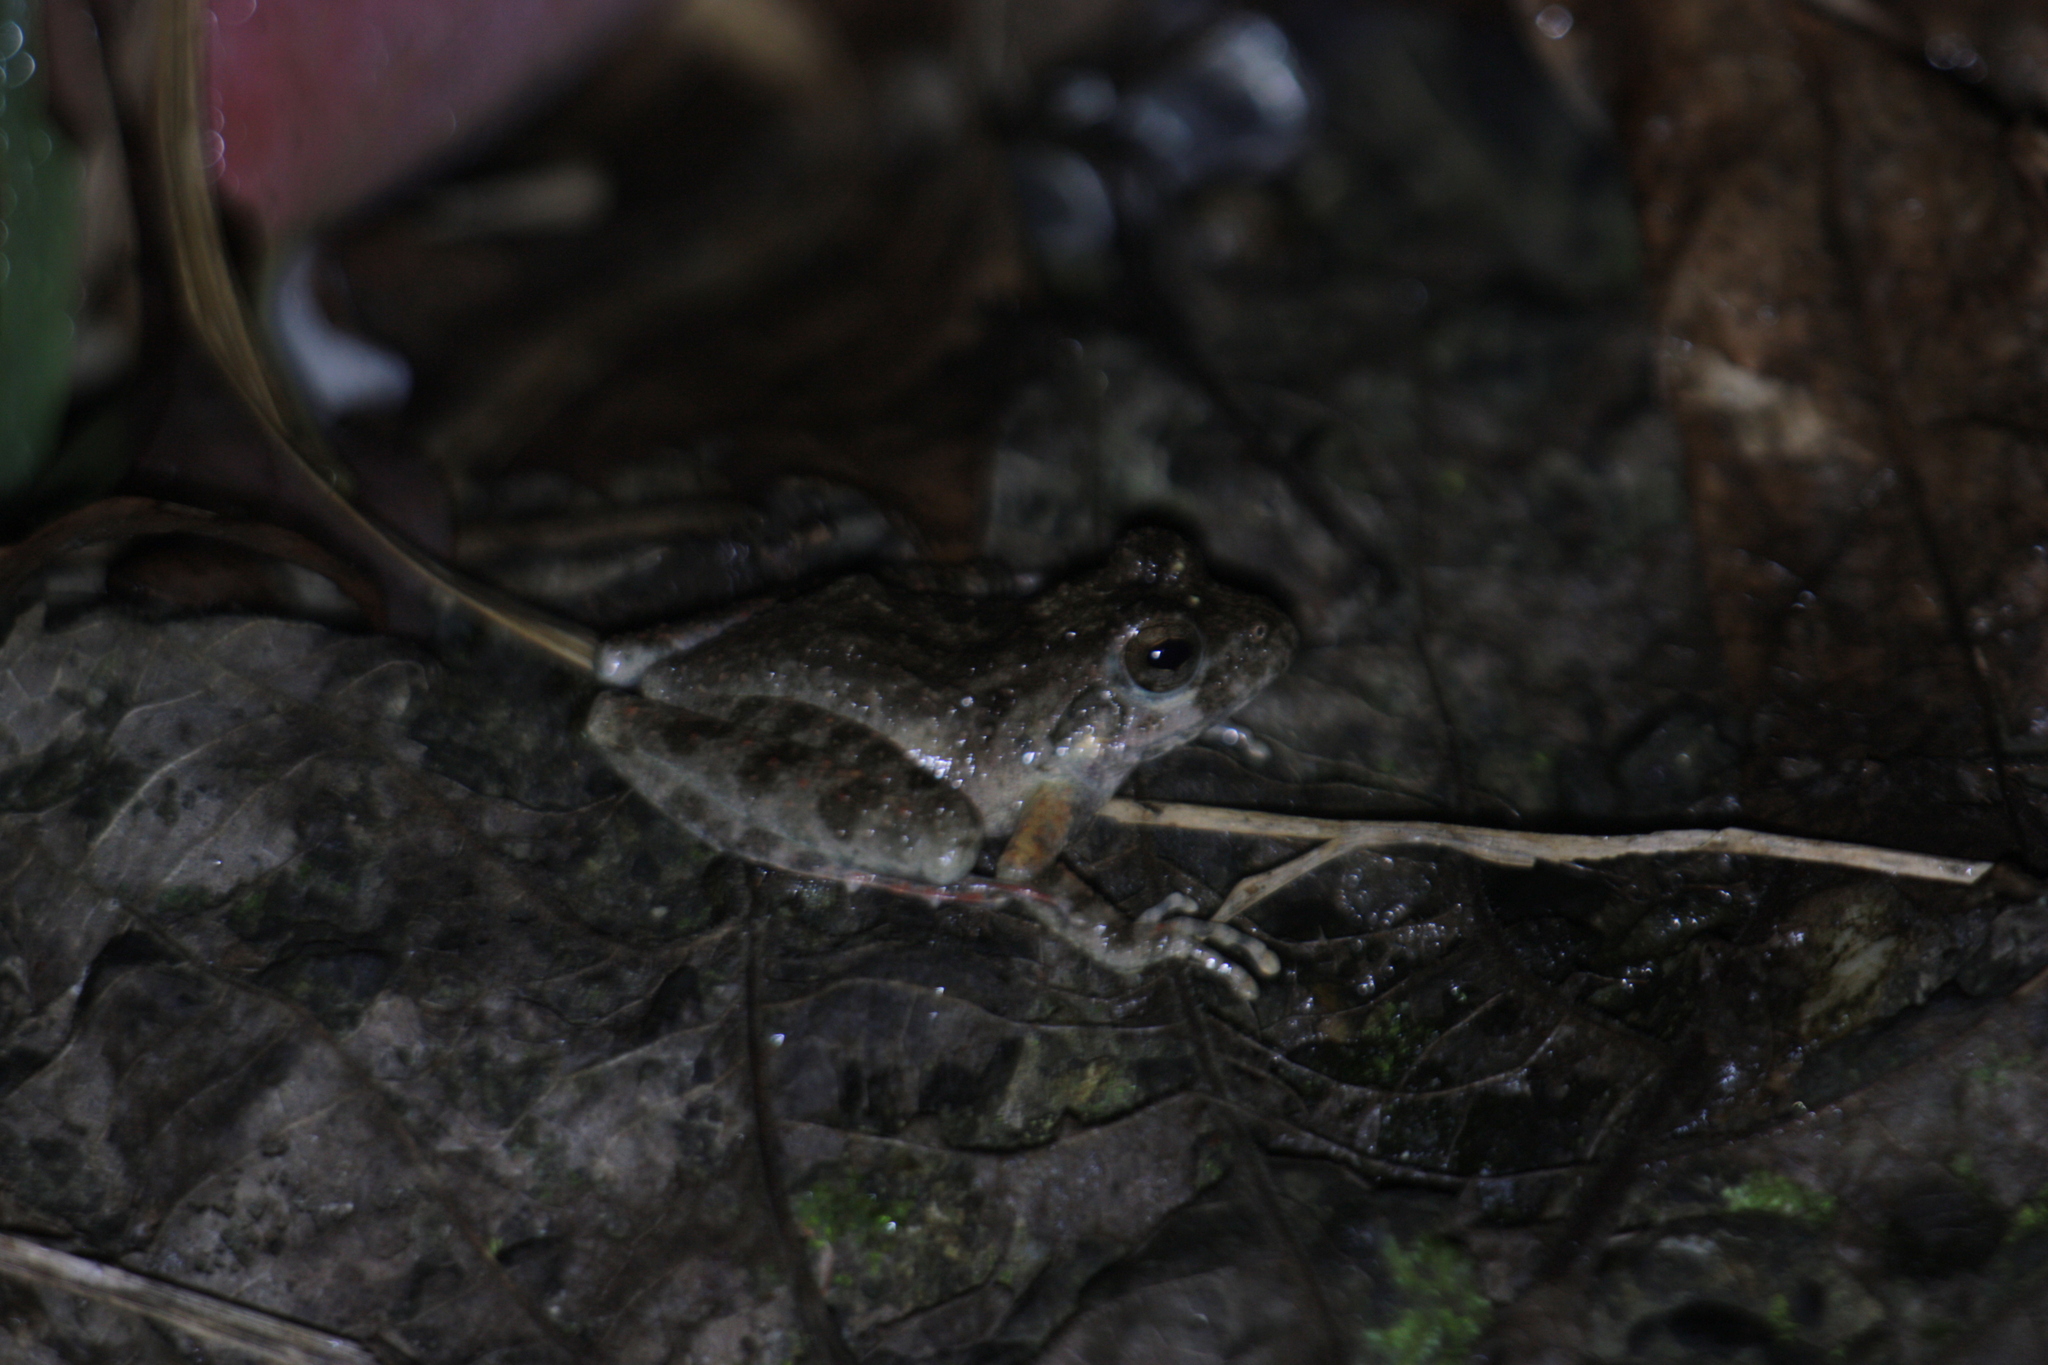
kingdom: Animalia
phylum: Chordata
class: Amphibia
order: Anura
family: Rhacophoridae
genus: Buergeria
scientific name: Buergeria otai
